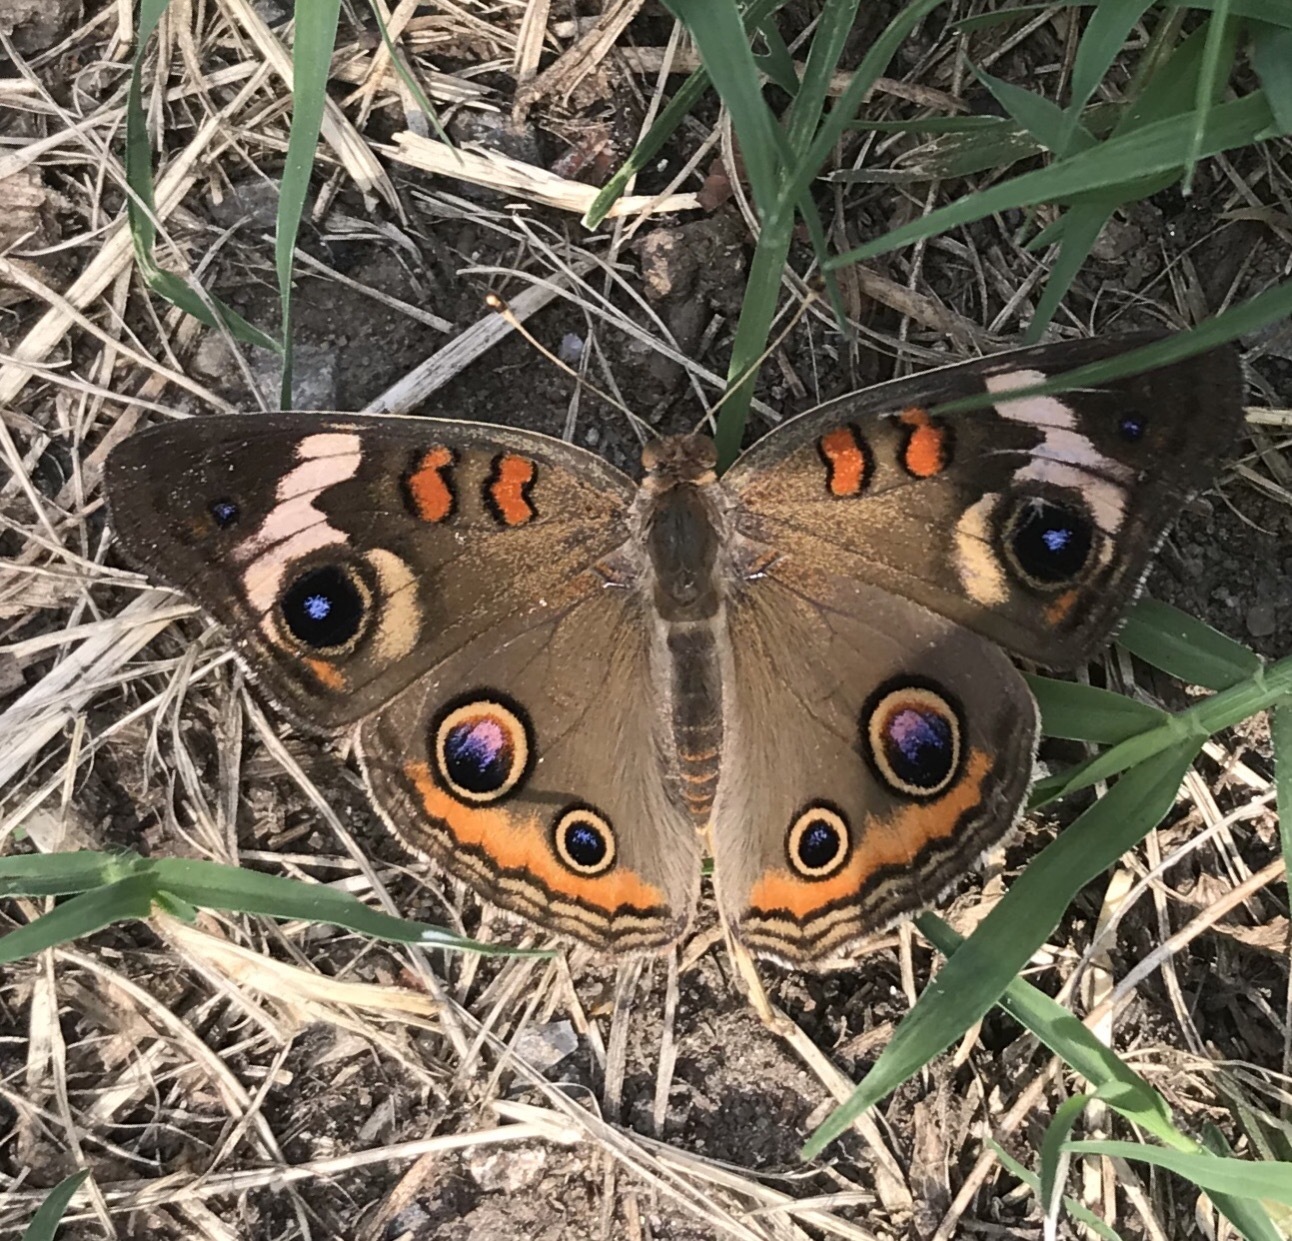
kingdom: Animalia
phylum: Arthropoda
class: Insecta
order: Lepidoptera
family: Nymphalidae
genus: Junonia
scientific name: Junonia coenia
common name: Common buckeye
